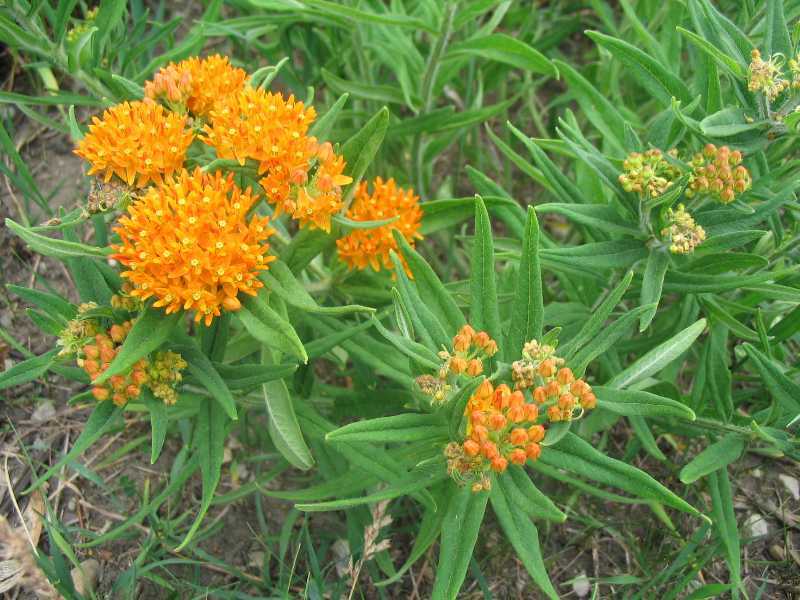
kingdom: Plantae
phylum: Tracheophyta
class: Magnoliopsida
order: Gentianales
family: Apocynaceae
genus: Asclepias
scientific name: Asclepias tuberosa
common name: Butterfly milkweed
